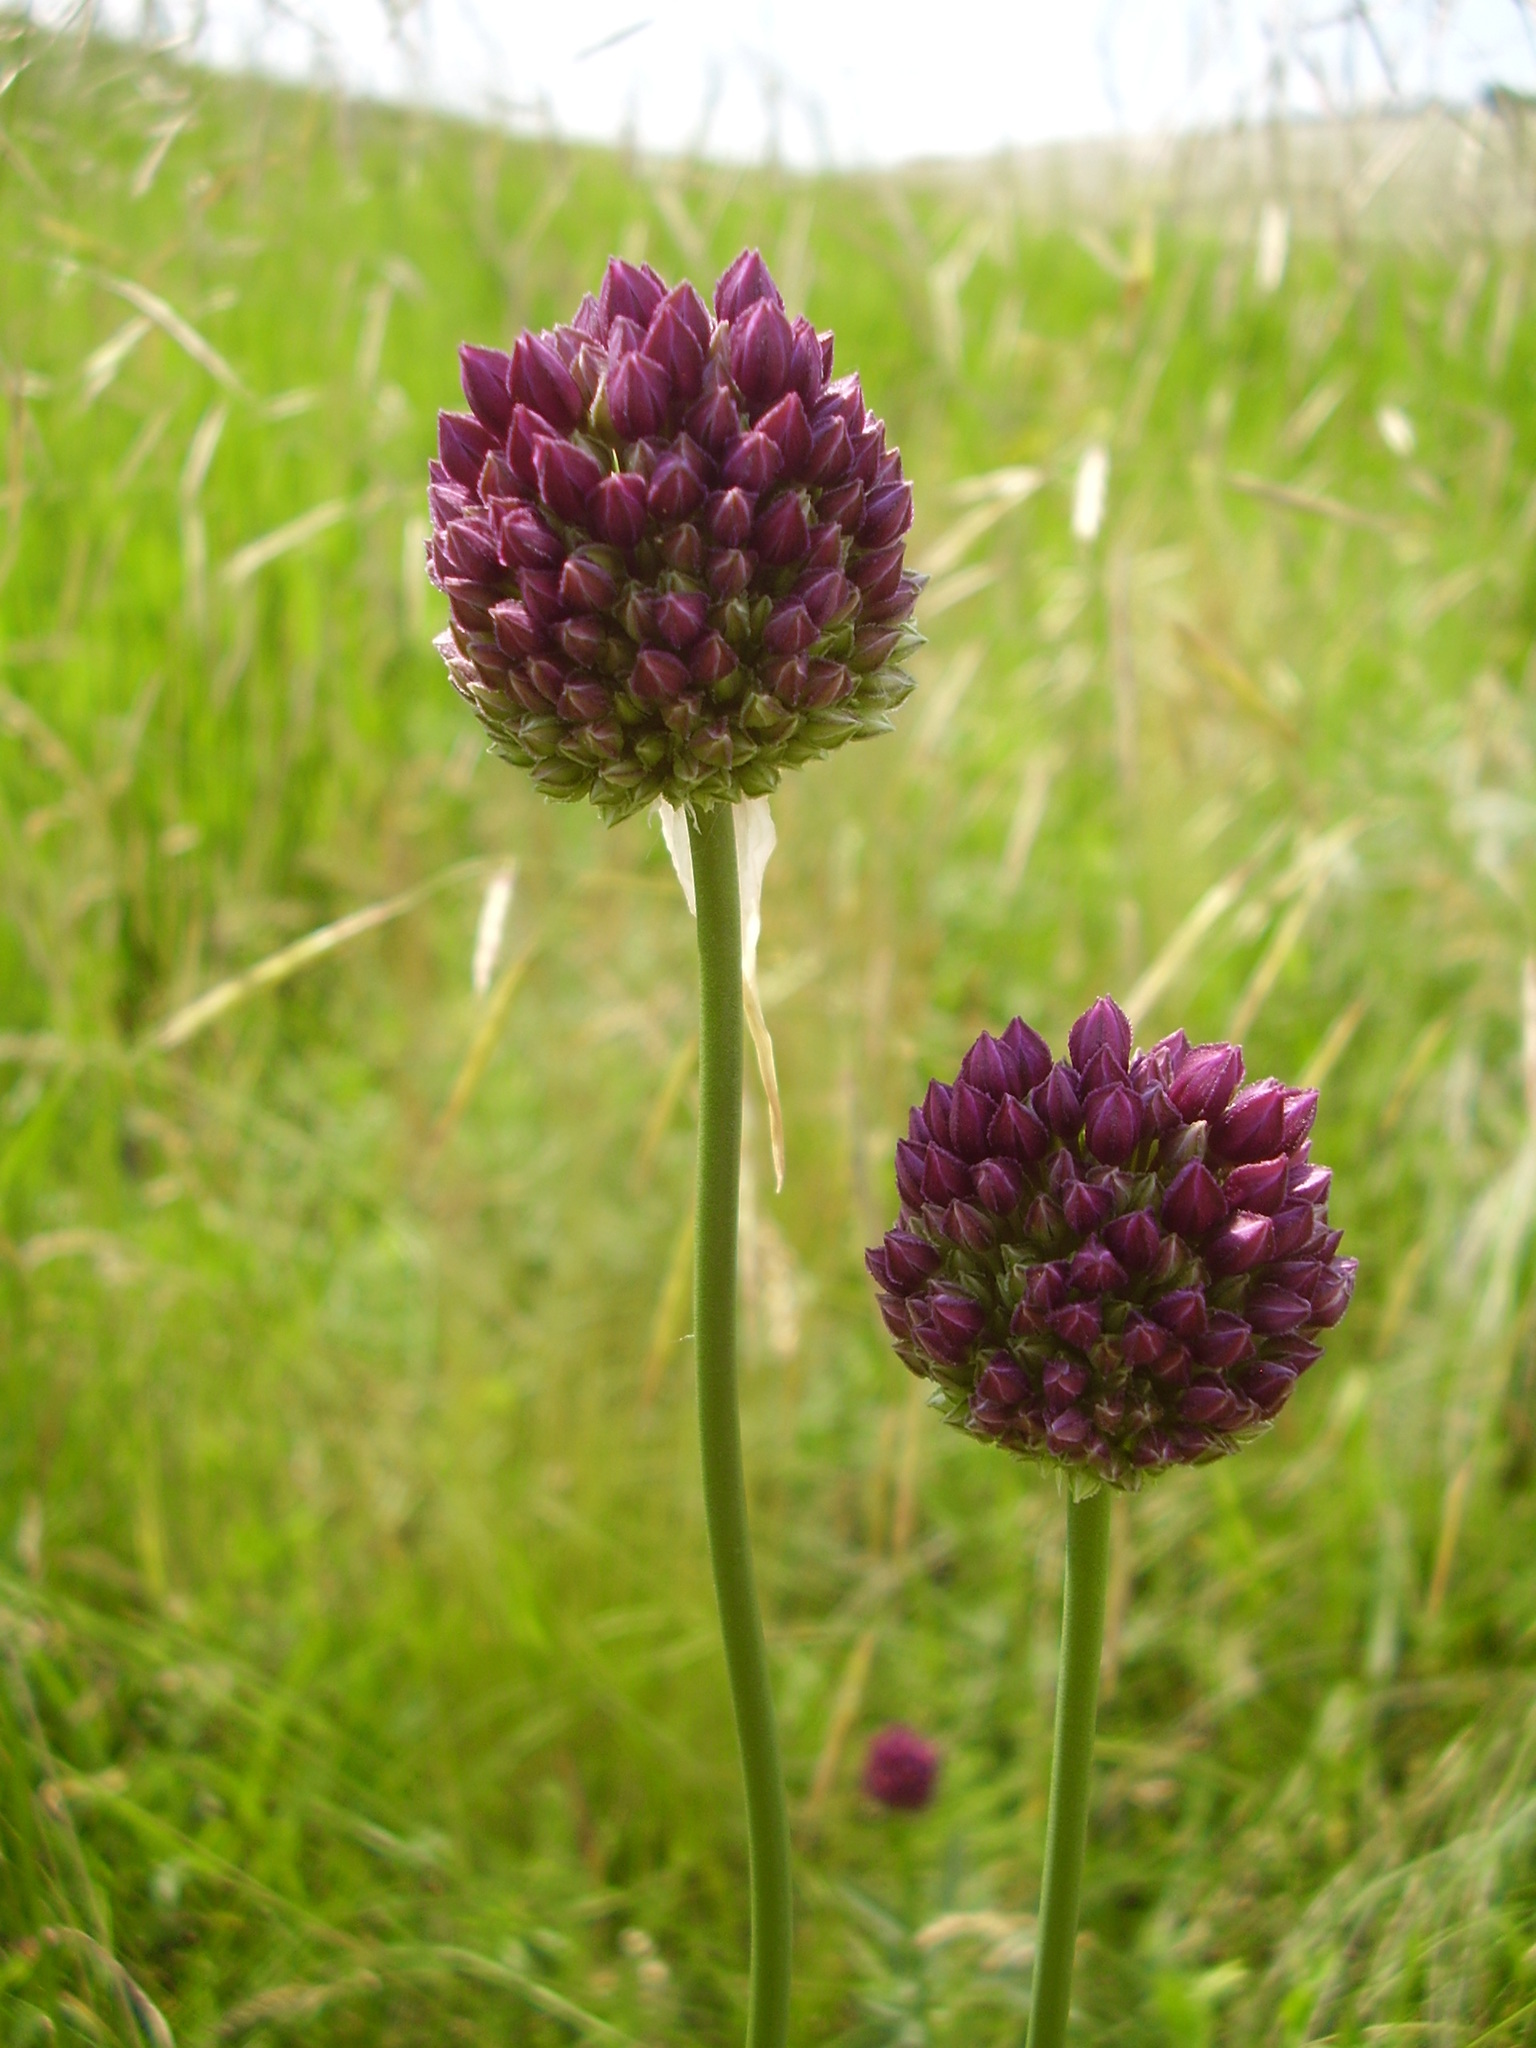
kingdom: Plantae
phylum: Tracheophyta
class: Liliopsida
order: Asparagales
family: Amaryllidaceae
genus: Allium
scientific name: Allium rotundum
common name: Sand leek
